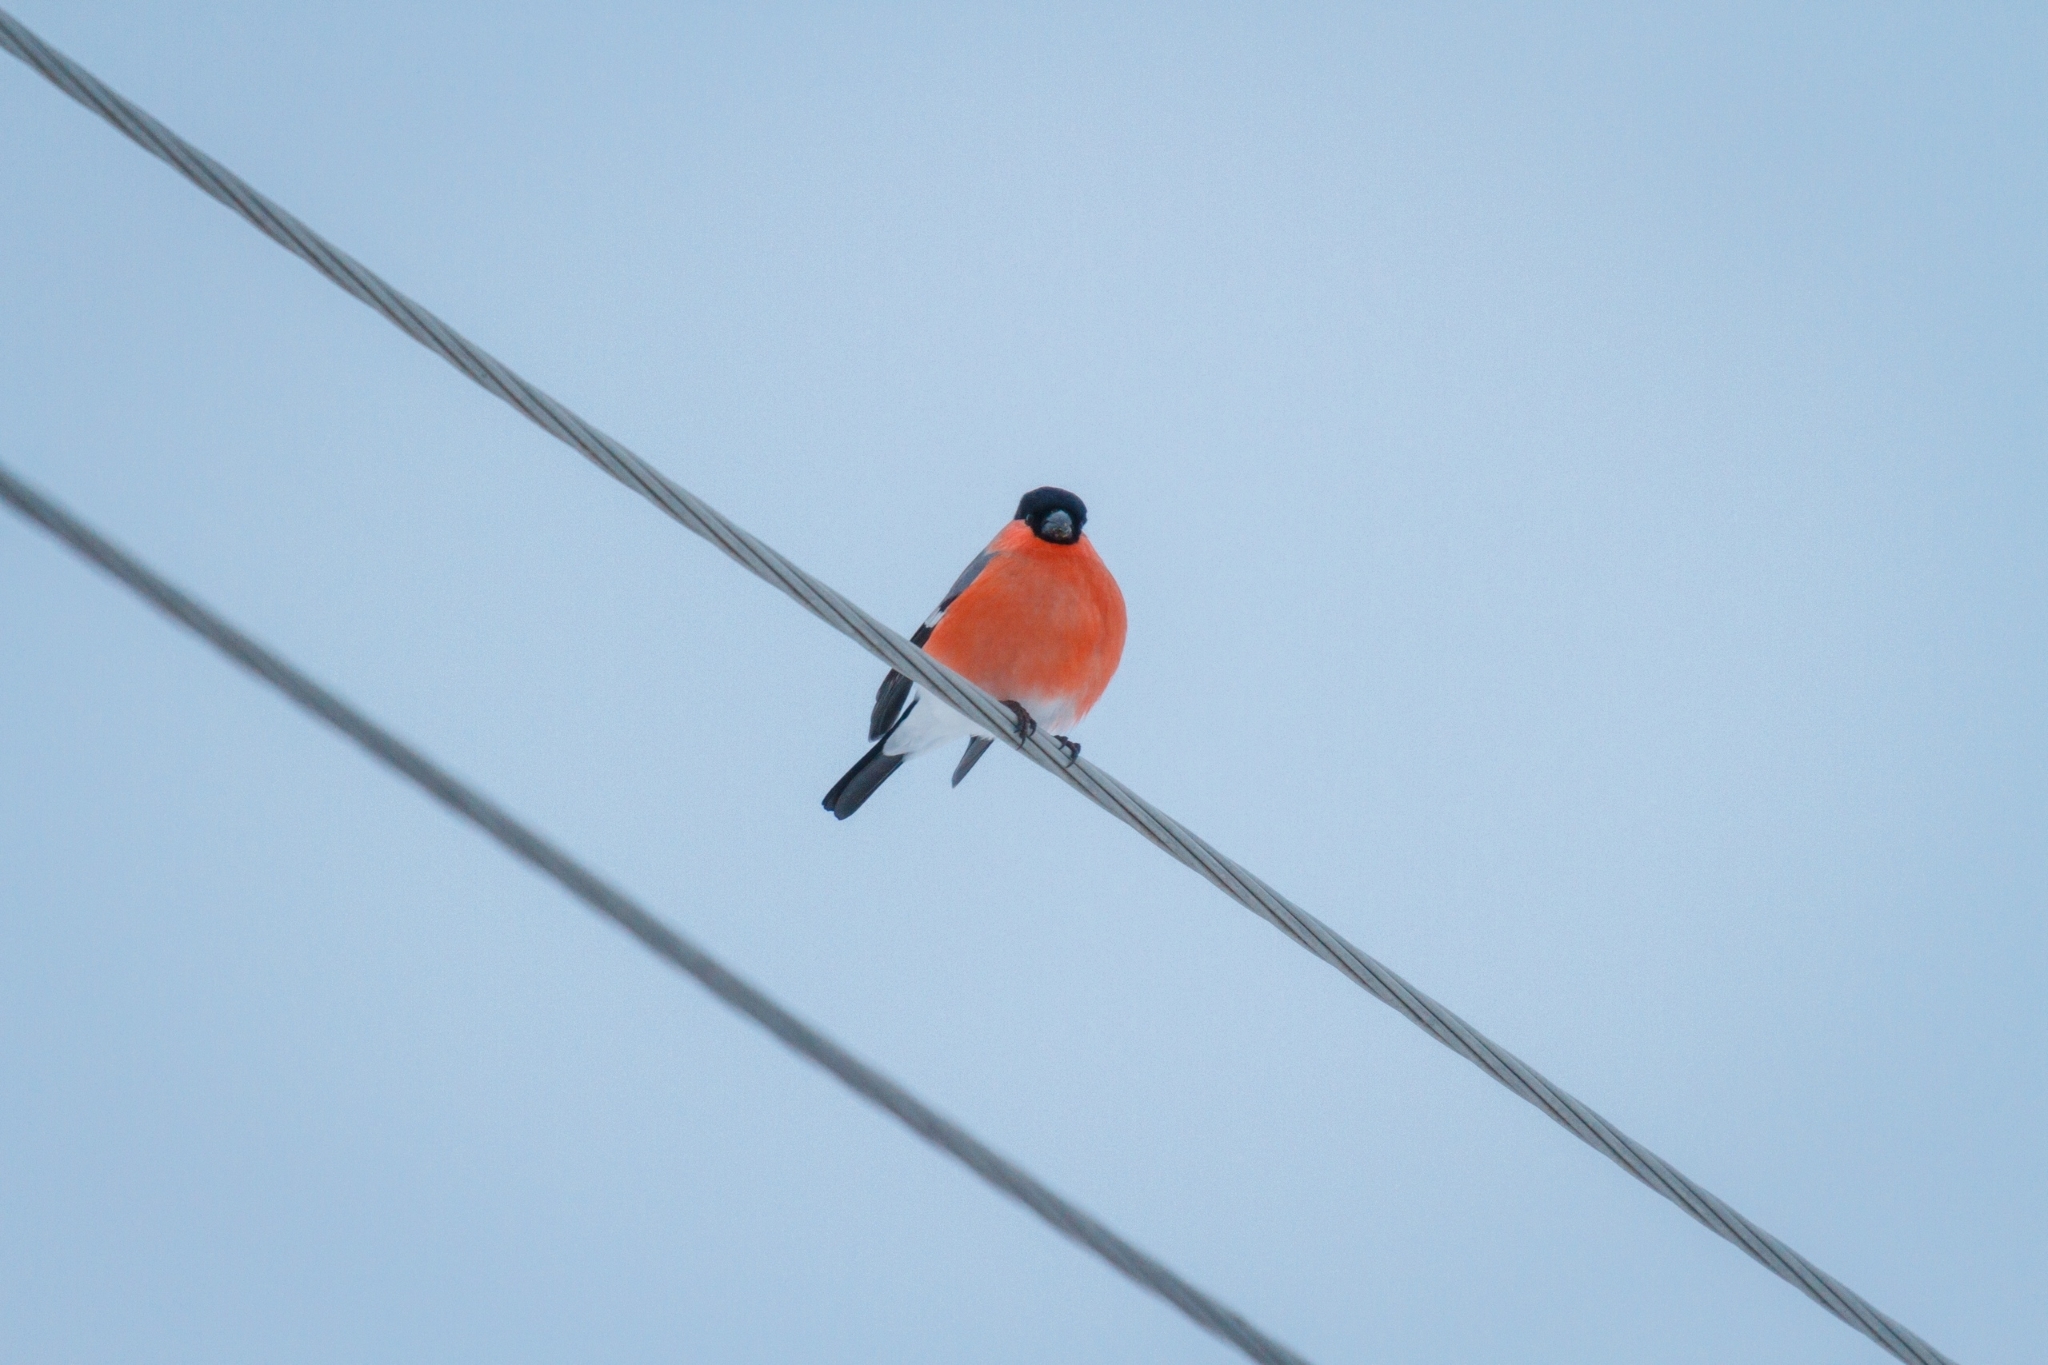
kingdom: Animalia
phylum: Chordata
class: Aves
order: Passeriformes
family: Fringillidae
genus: Pyrrhula
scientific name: Pyrrhula pyrrhula
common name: Eurasian bullfinch
